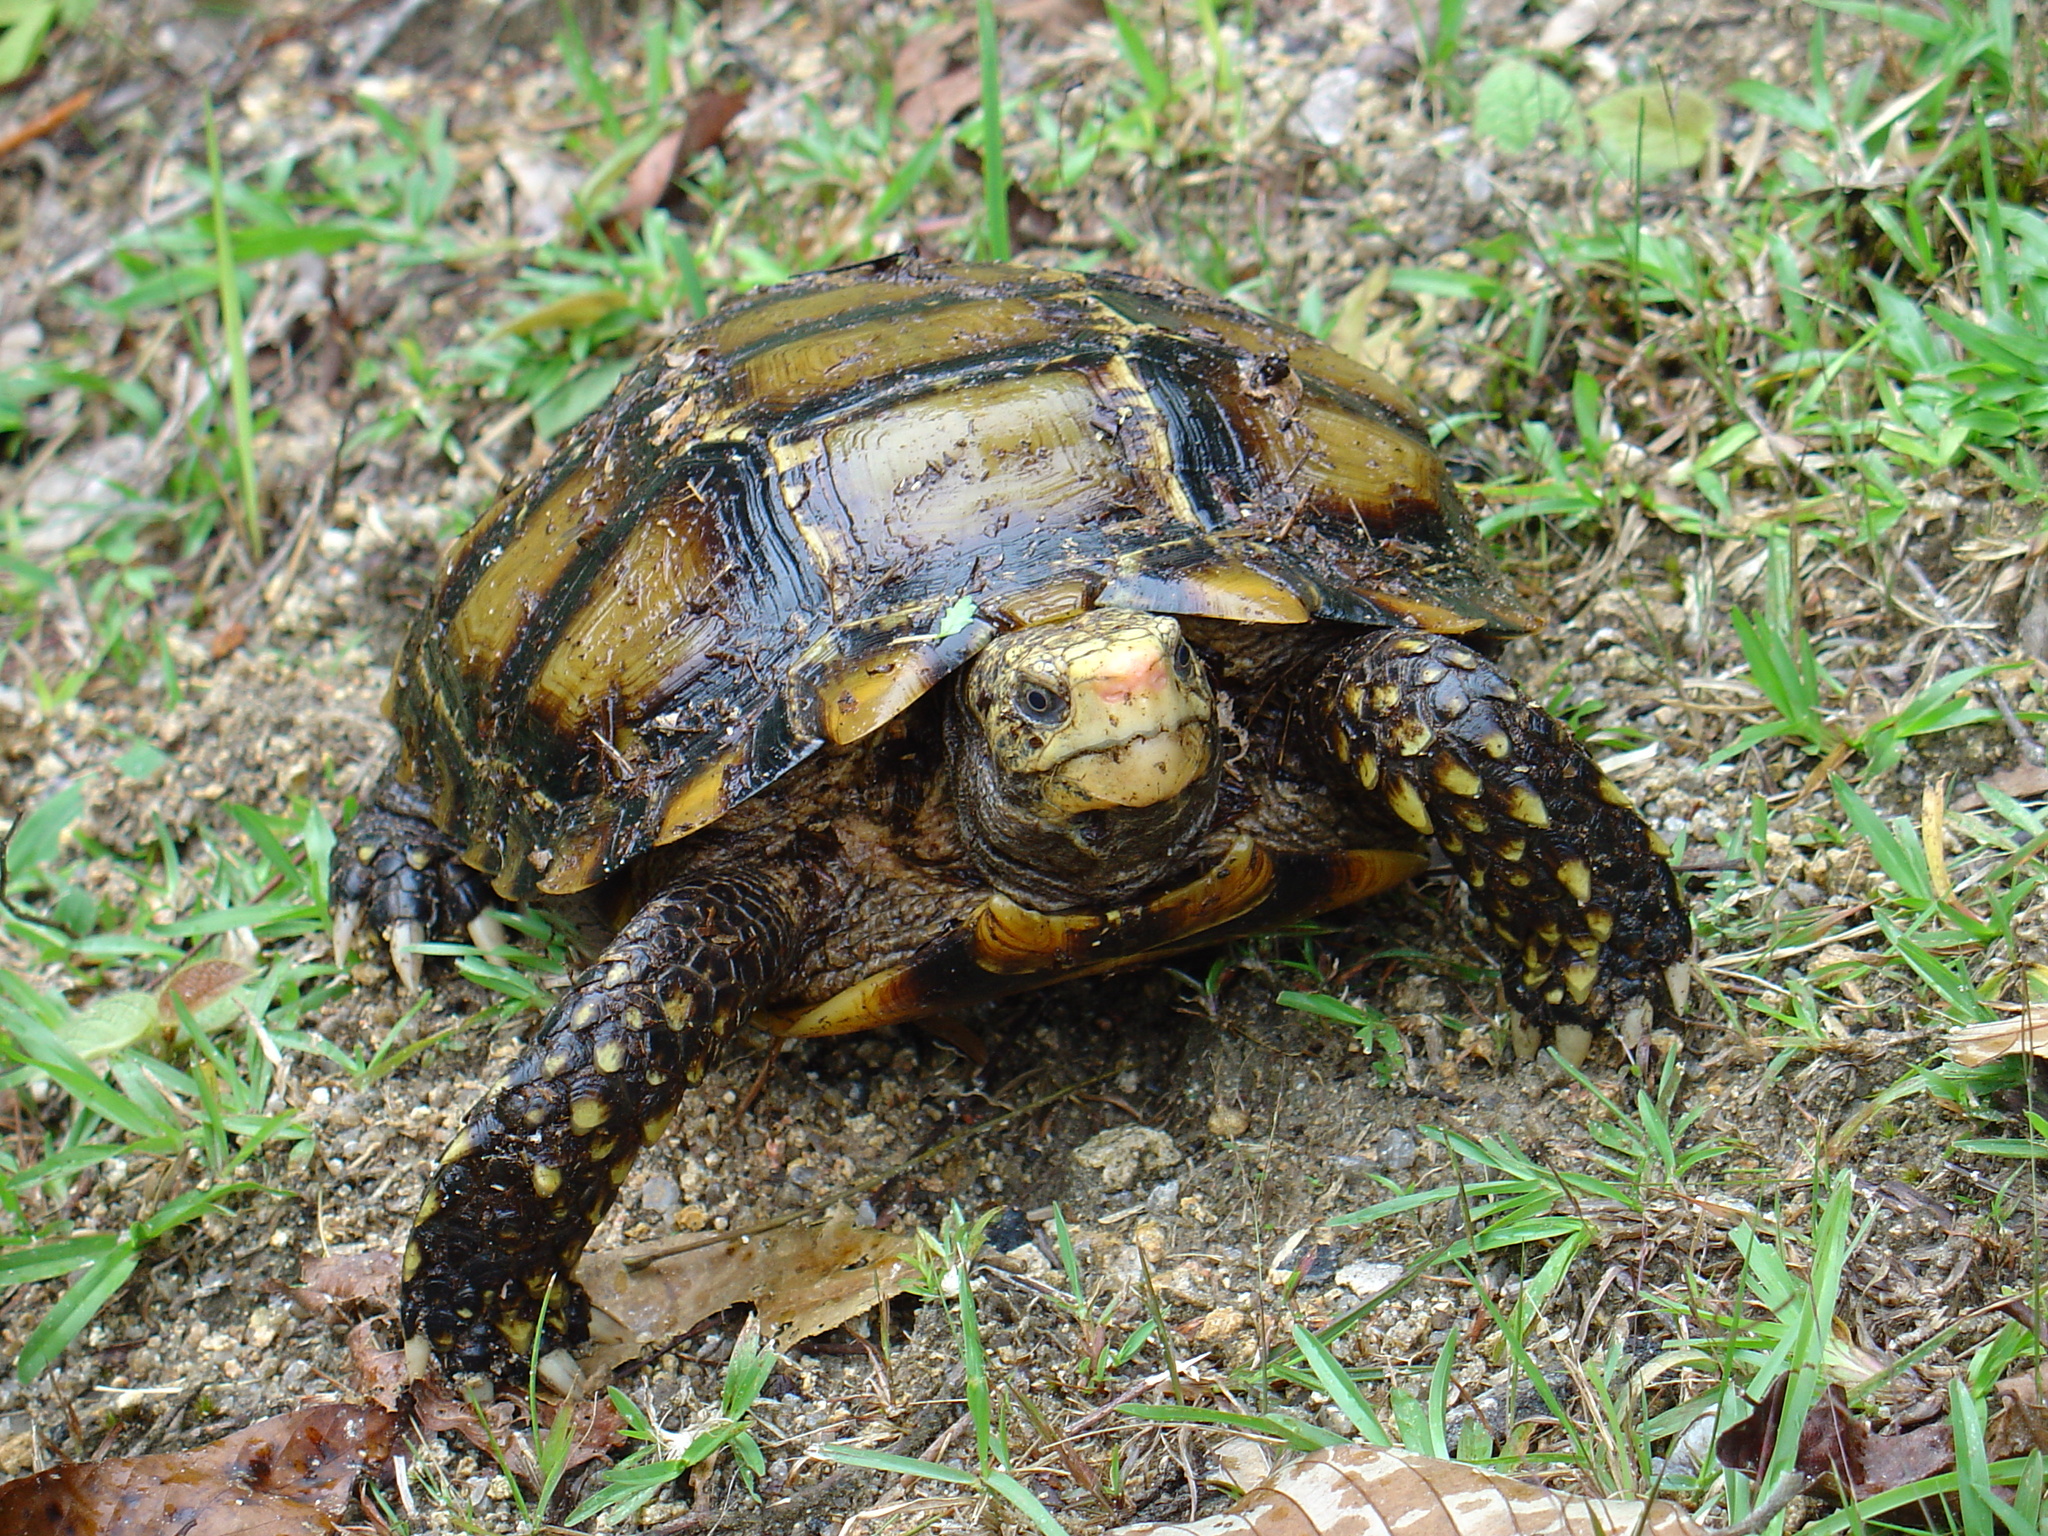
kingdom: Animalia
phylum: Chordata
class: Testudines
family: Testudinidae
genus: Manouria
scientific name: Manouria impressa
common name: Impressed tortoise
